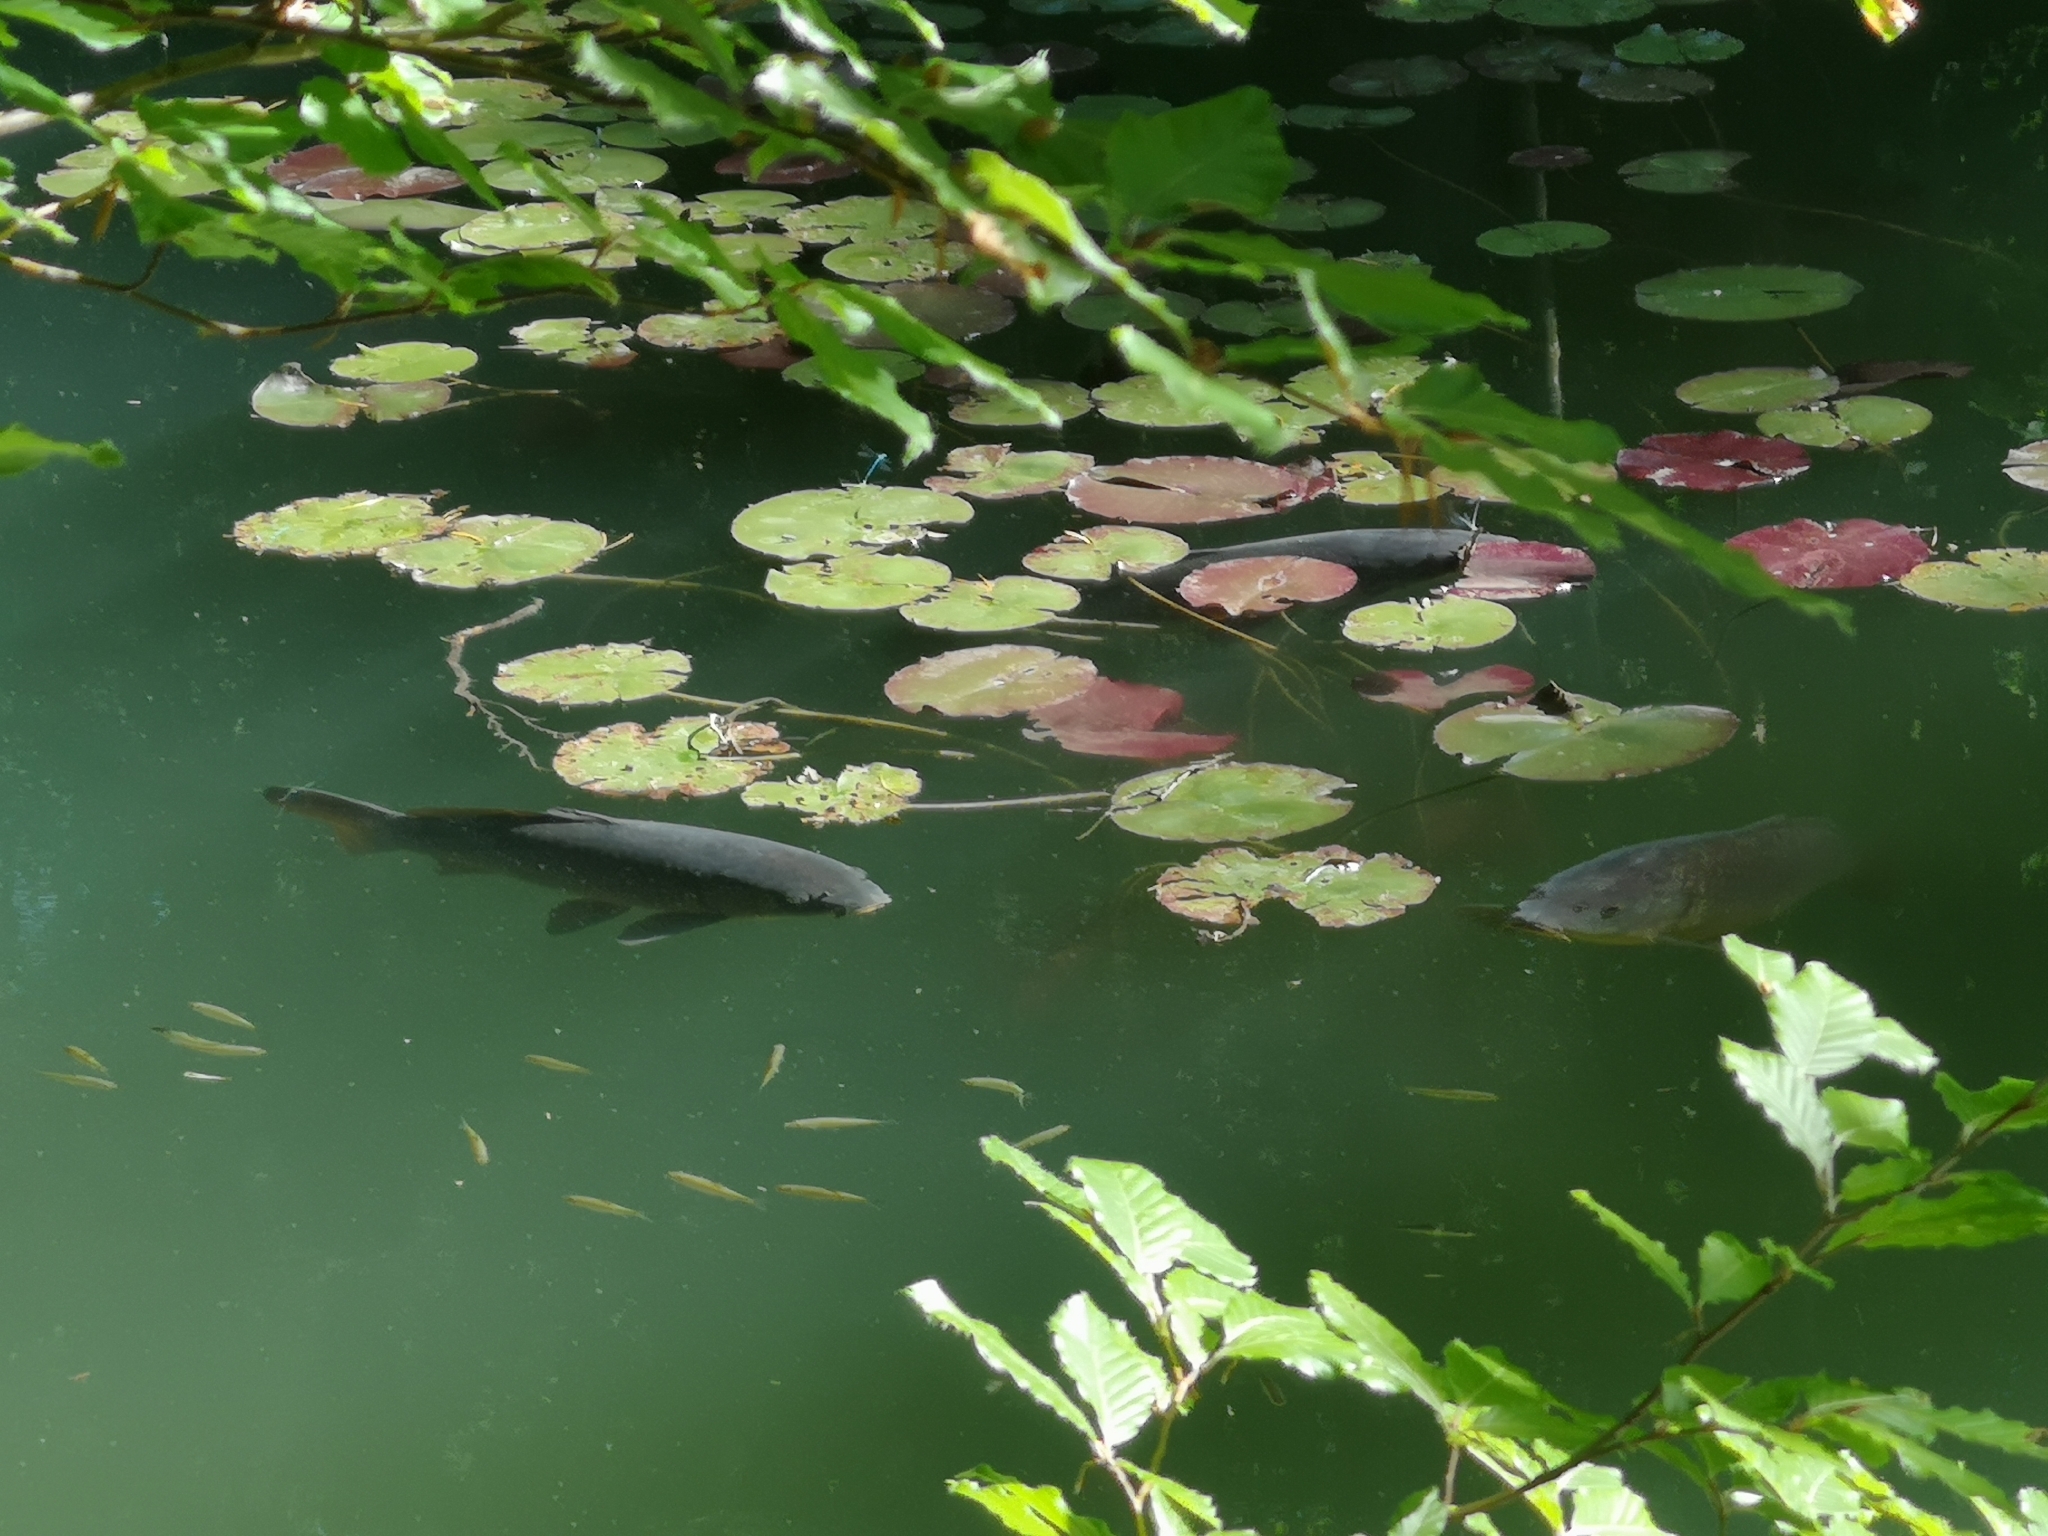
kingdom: Animalia
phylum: Chordata
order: Cypriniformes
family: Cyprinidae
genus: Cyprinus
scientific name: Cyprinus carpio
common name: Common carp
